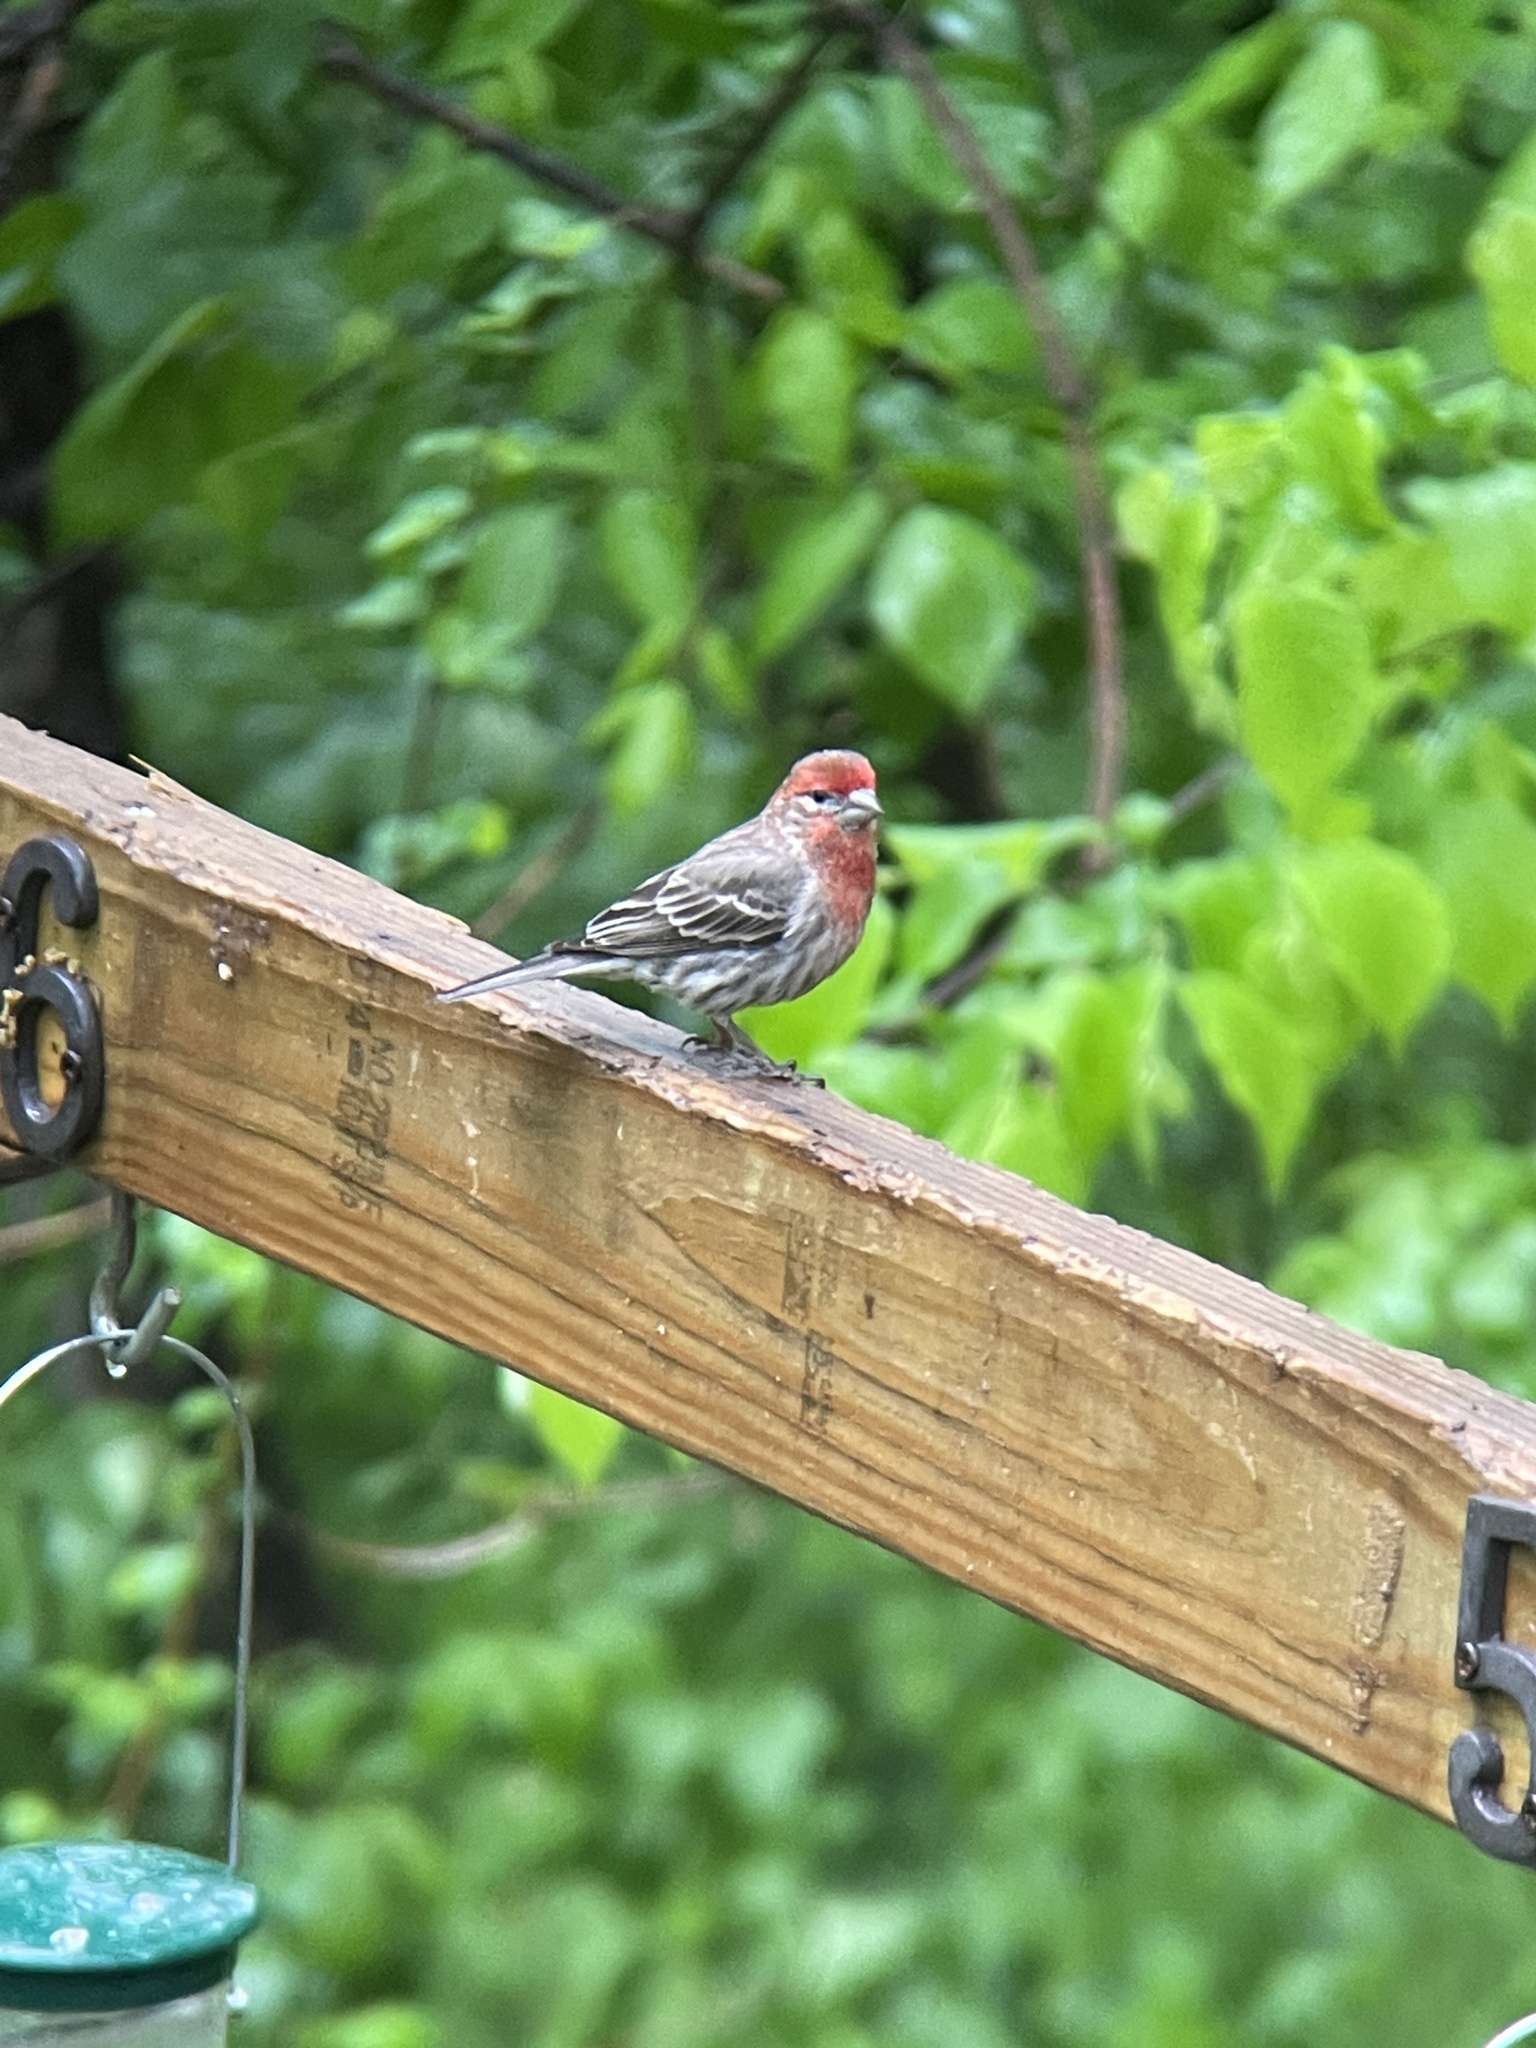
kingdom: Animalia
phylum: Chordata
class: Aves
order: Passeriformes
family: Fringillidae
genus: Haemorhous
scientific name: Haemorhous mexicanus
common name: House finch
